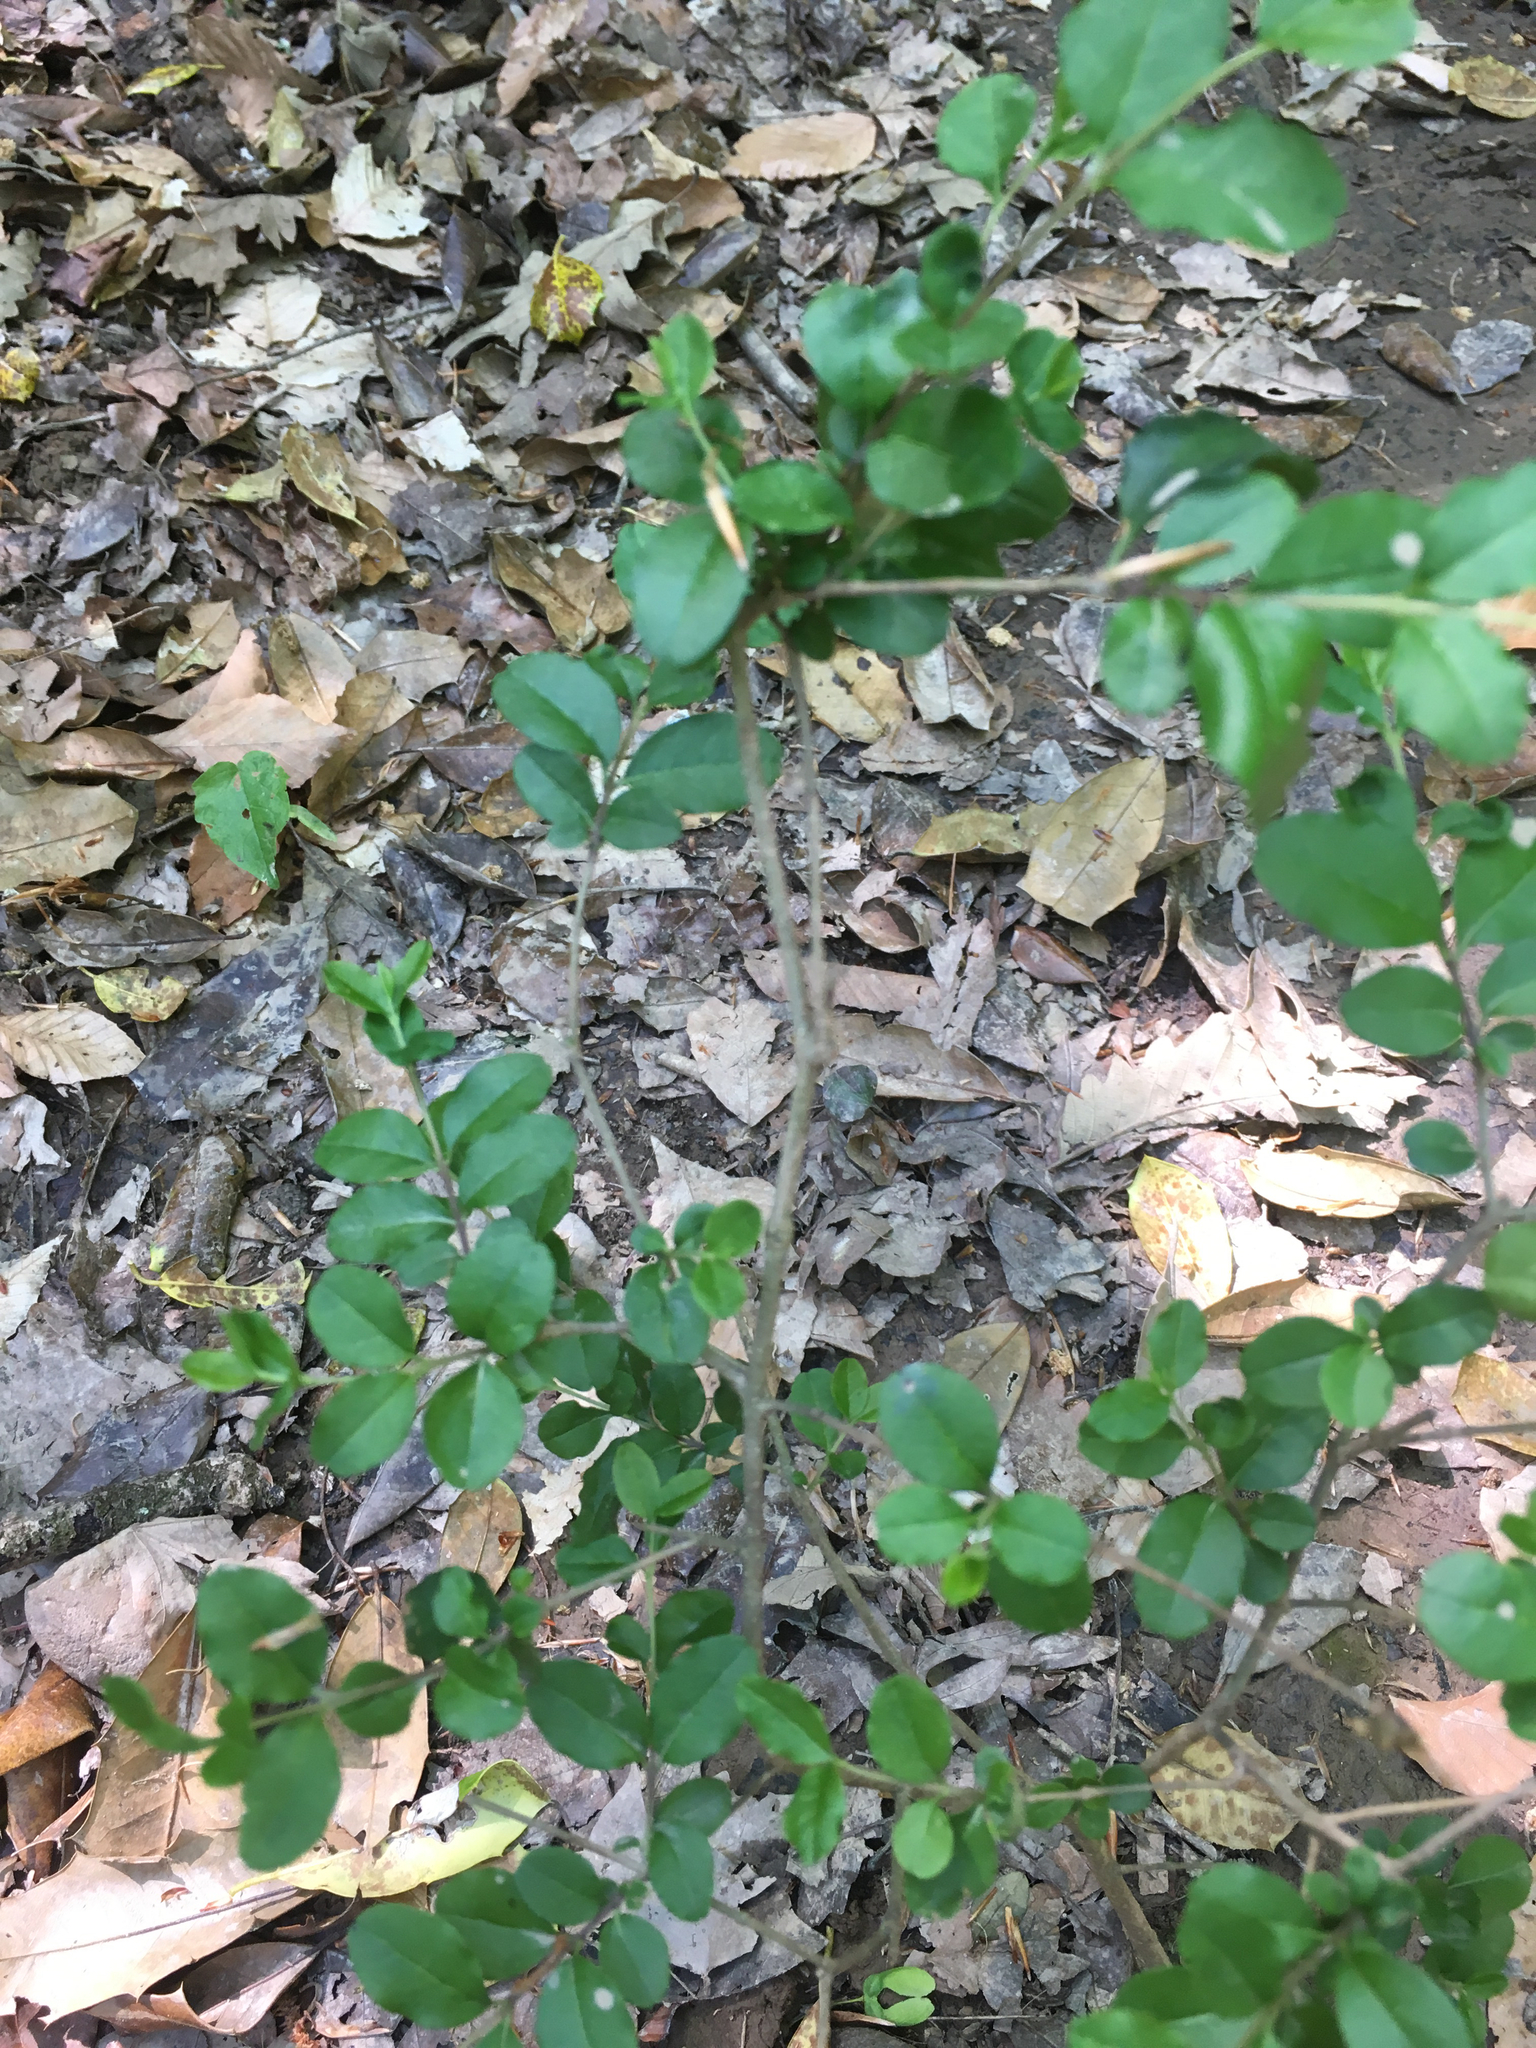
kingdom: Plantae
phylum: Tracheophyta
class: Magnoliopsida
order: Lamiales
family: Oleaceae
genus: Ligustrum
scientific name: Ligustrum sinense
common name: Chinese privet
